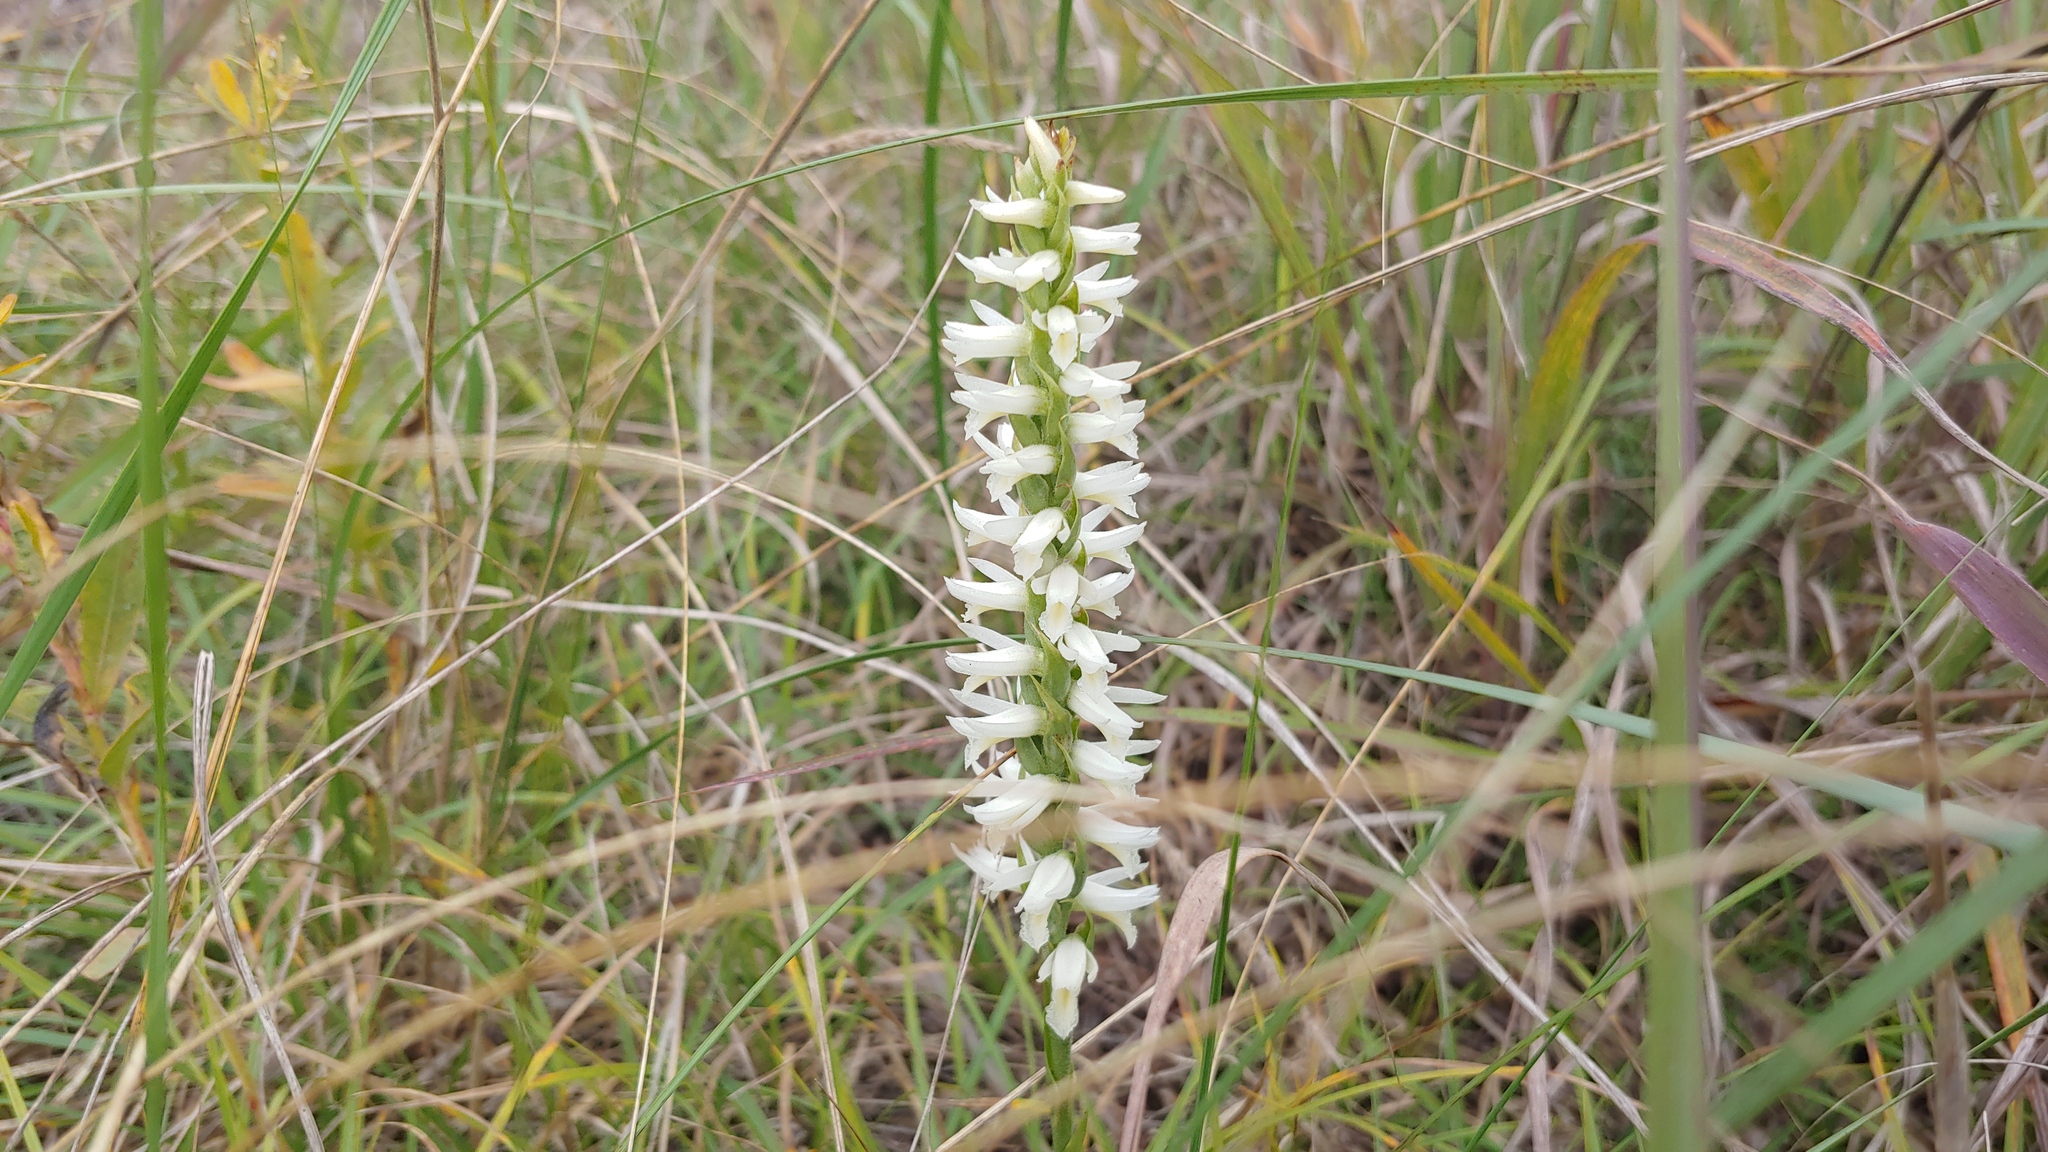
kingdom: Plantae
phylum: Tracheophyta
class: Liliopsida
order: Asparagales
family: Orchidaceae
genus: Spiranthes
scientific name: Spiranthes magnicamporum
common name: Great plains ladies'-tresses
